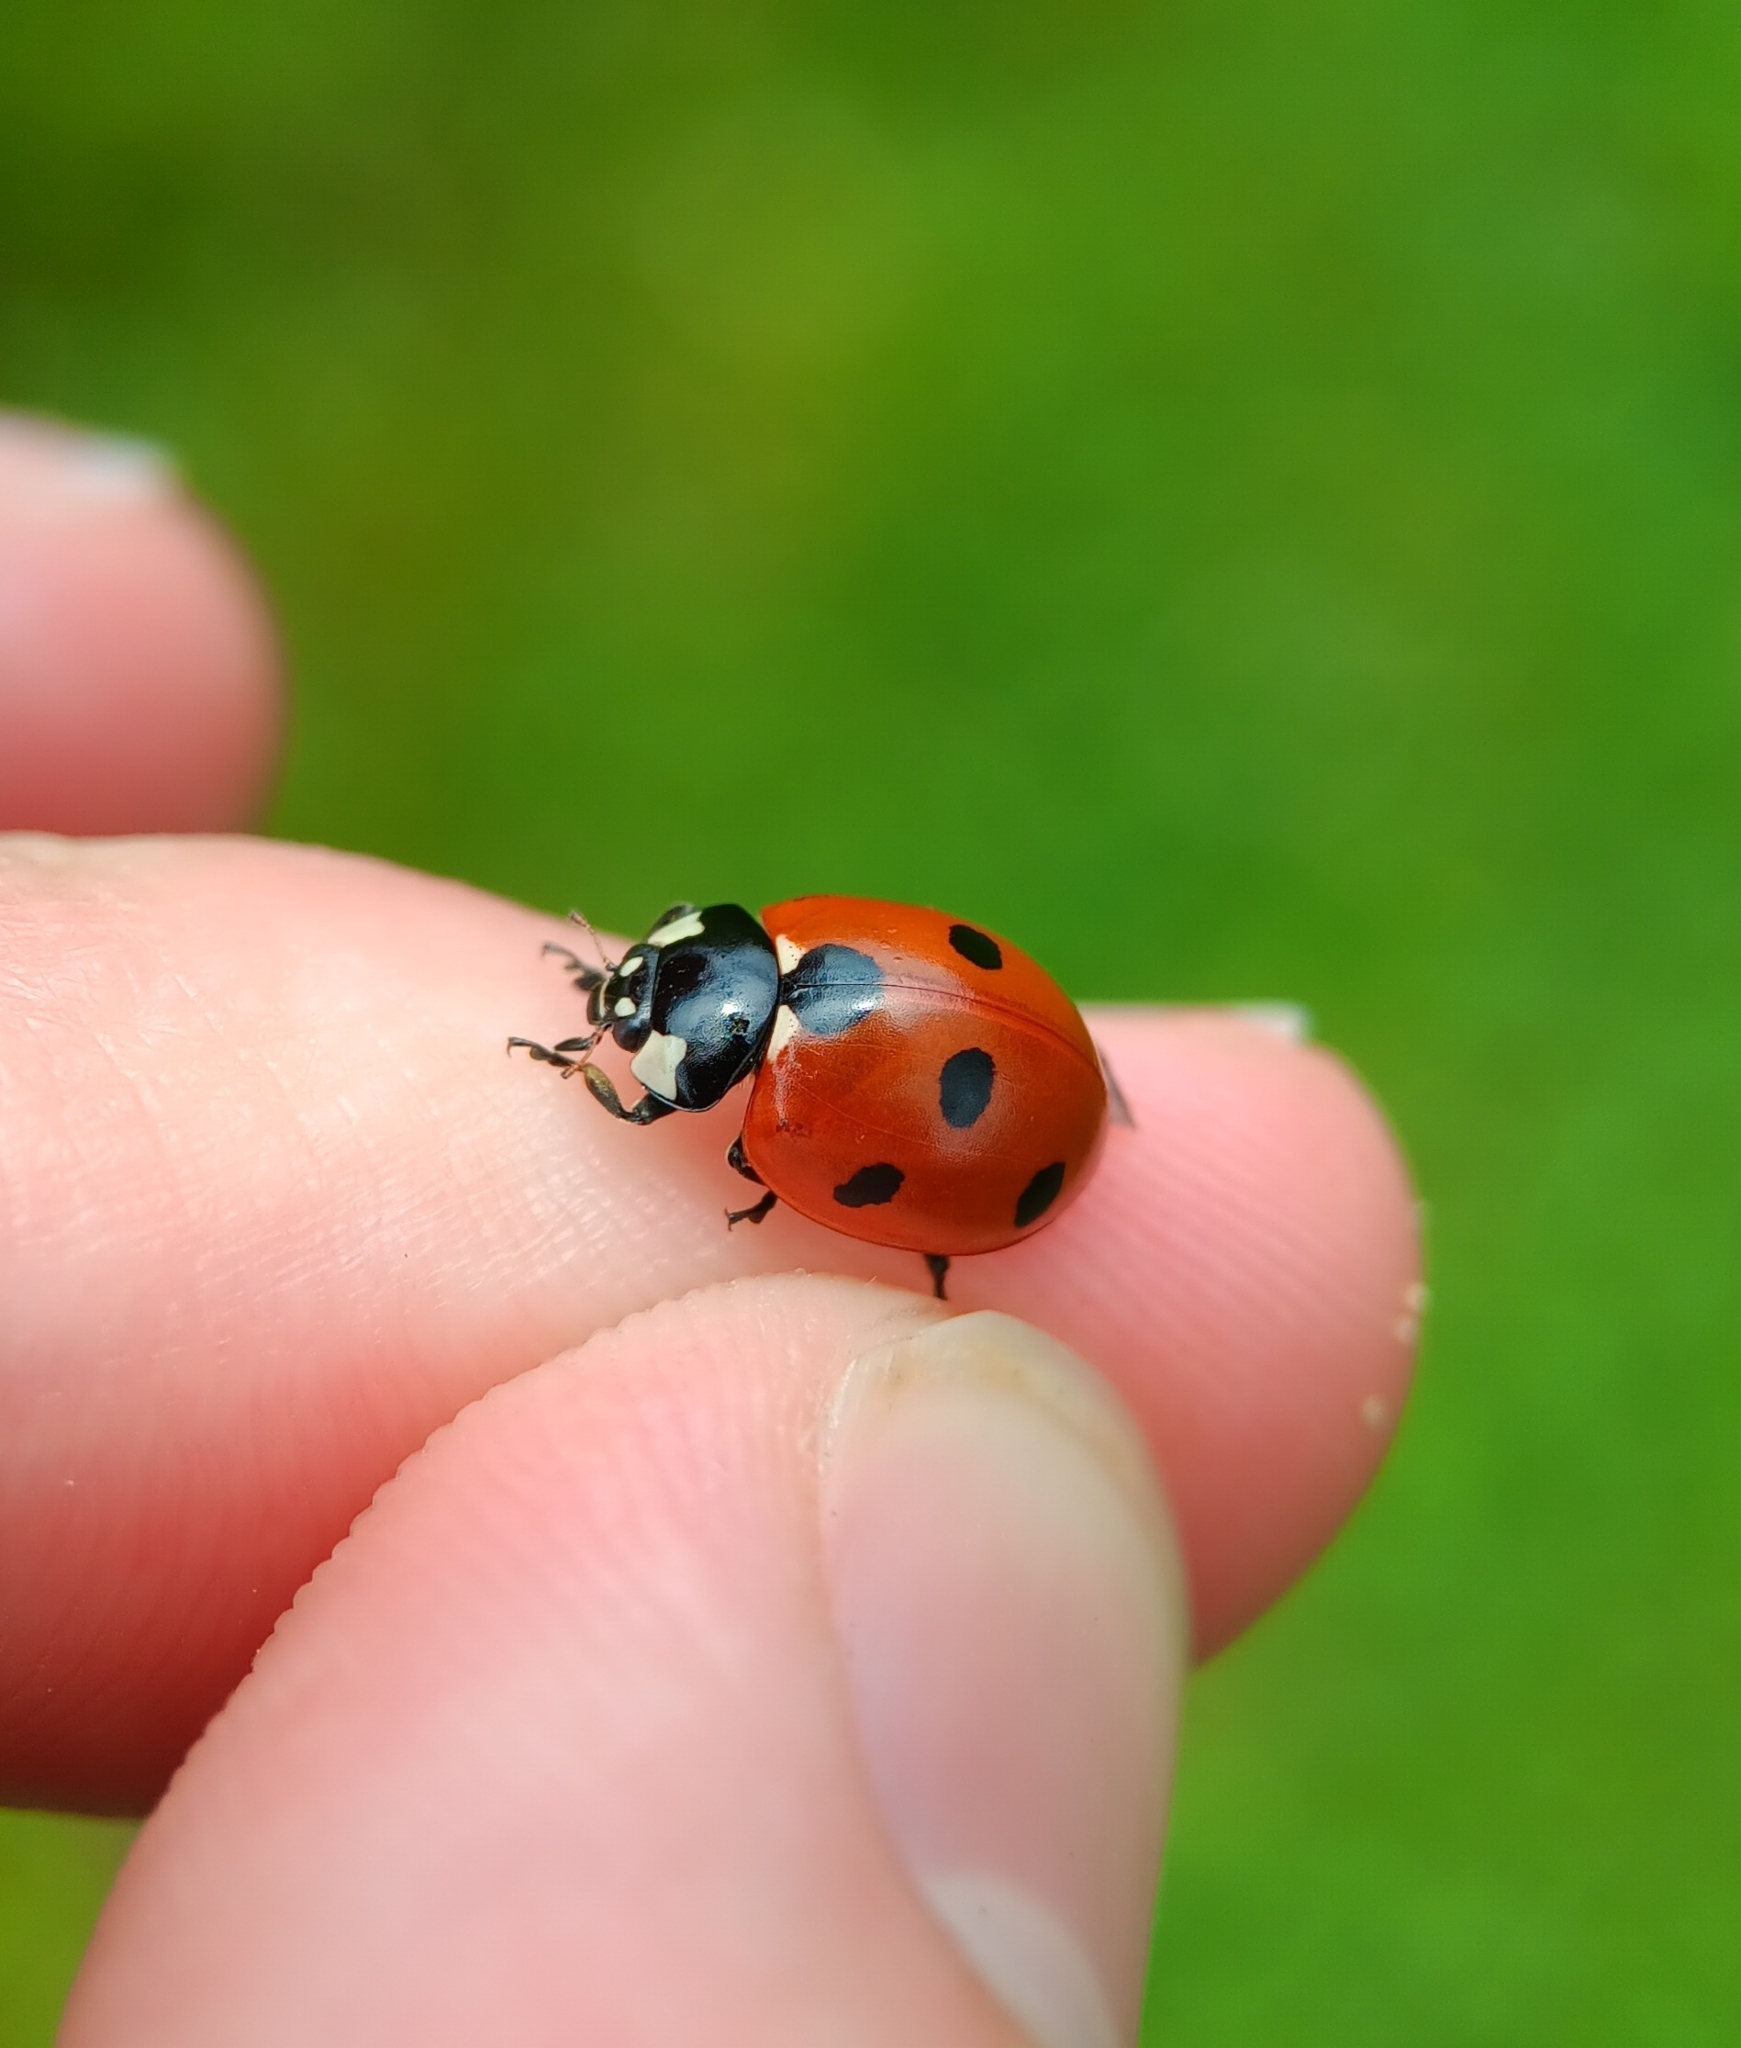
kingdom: Animalia
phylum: Arthropoda
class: Insecta
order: Coleoptera
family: Coccinellidae
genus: Coccinella
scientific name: Coccinella septempunctata
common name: Sevenspotted lady beetle
